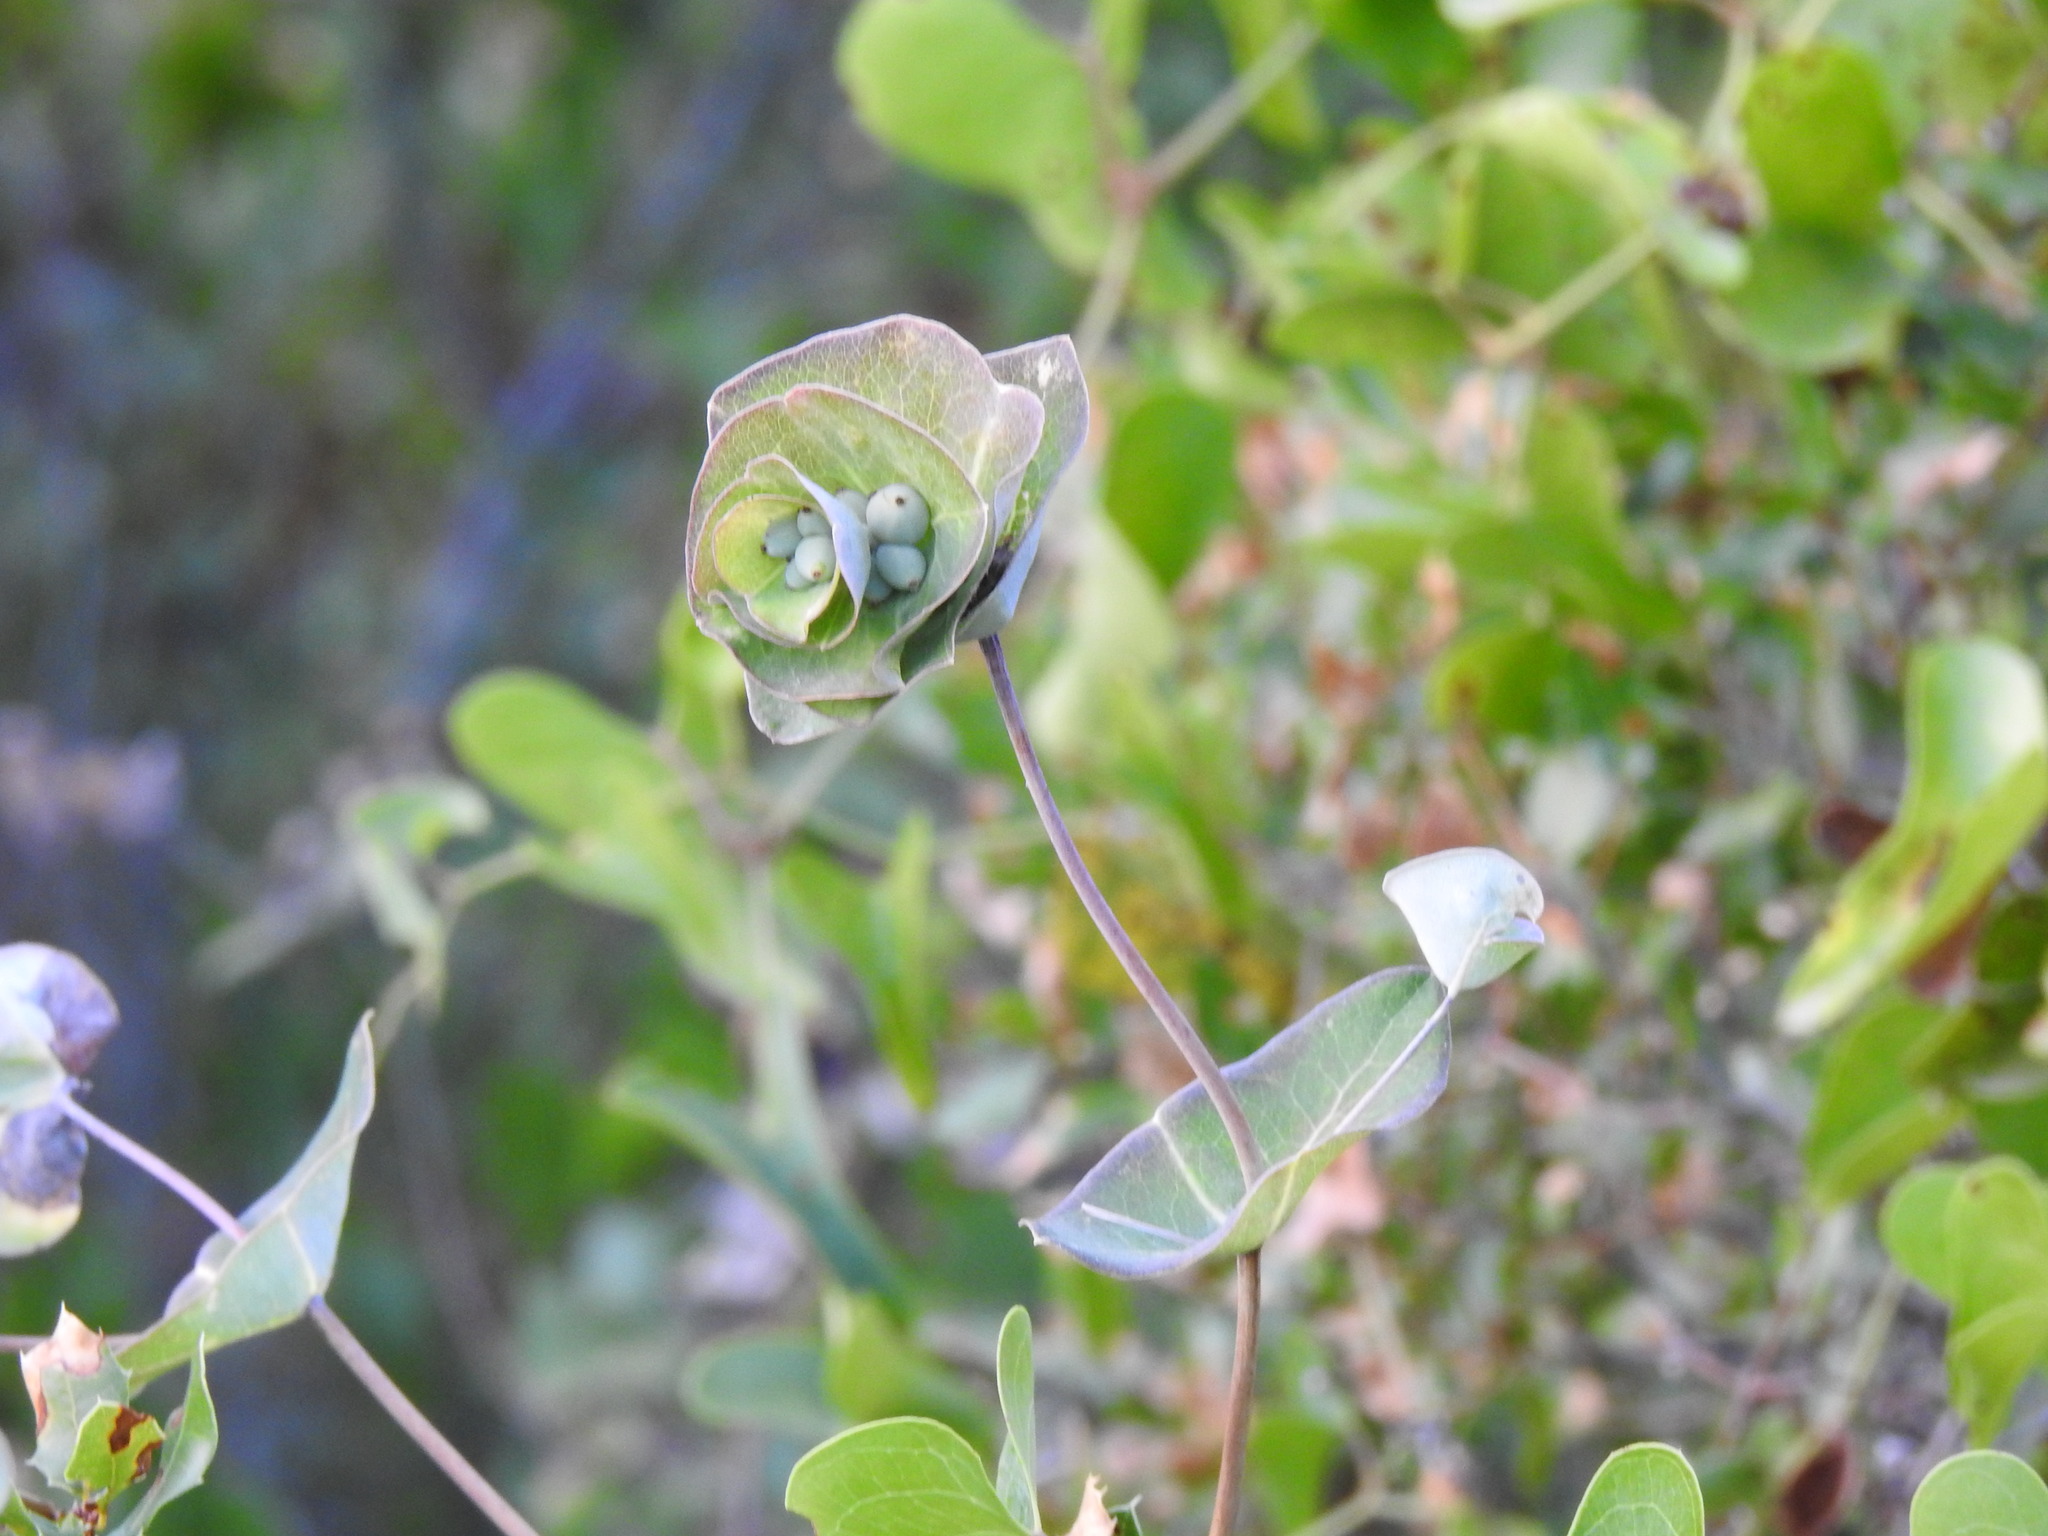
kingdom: Plantae
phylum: Tracheophyta
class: Magnoliopsida
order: Dipsacales
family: Caprifoliaceae
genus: Lonicera
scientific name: Lonicera implexa
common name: Minorca honeysuckle
